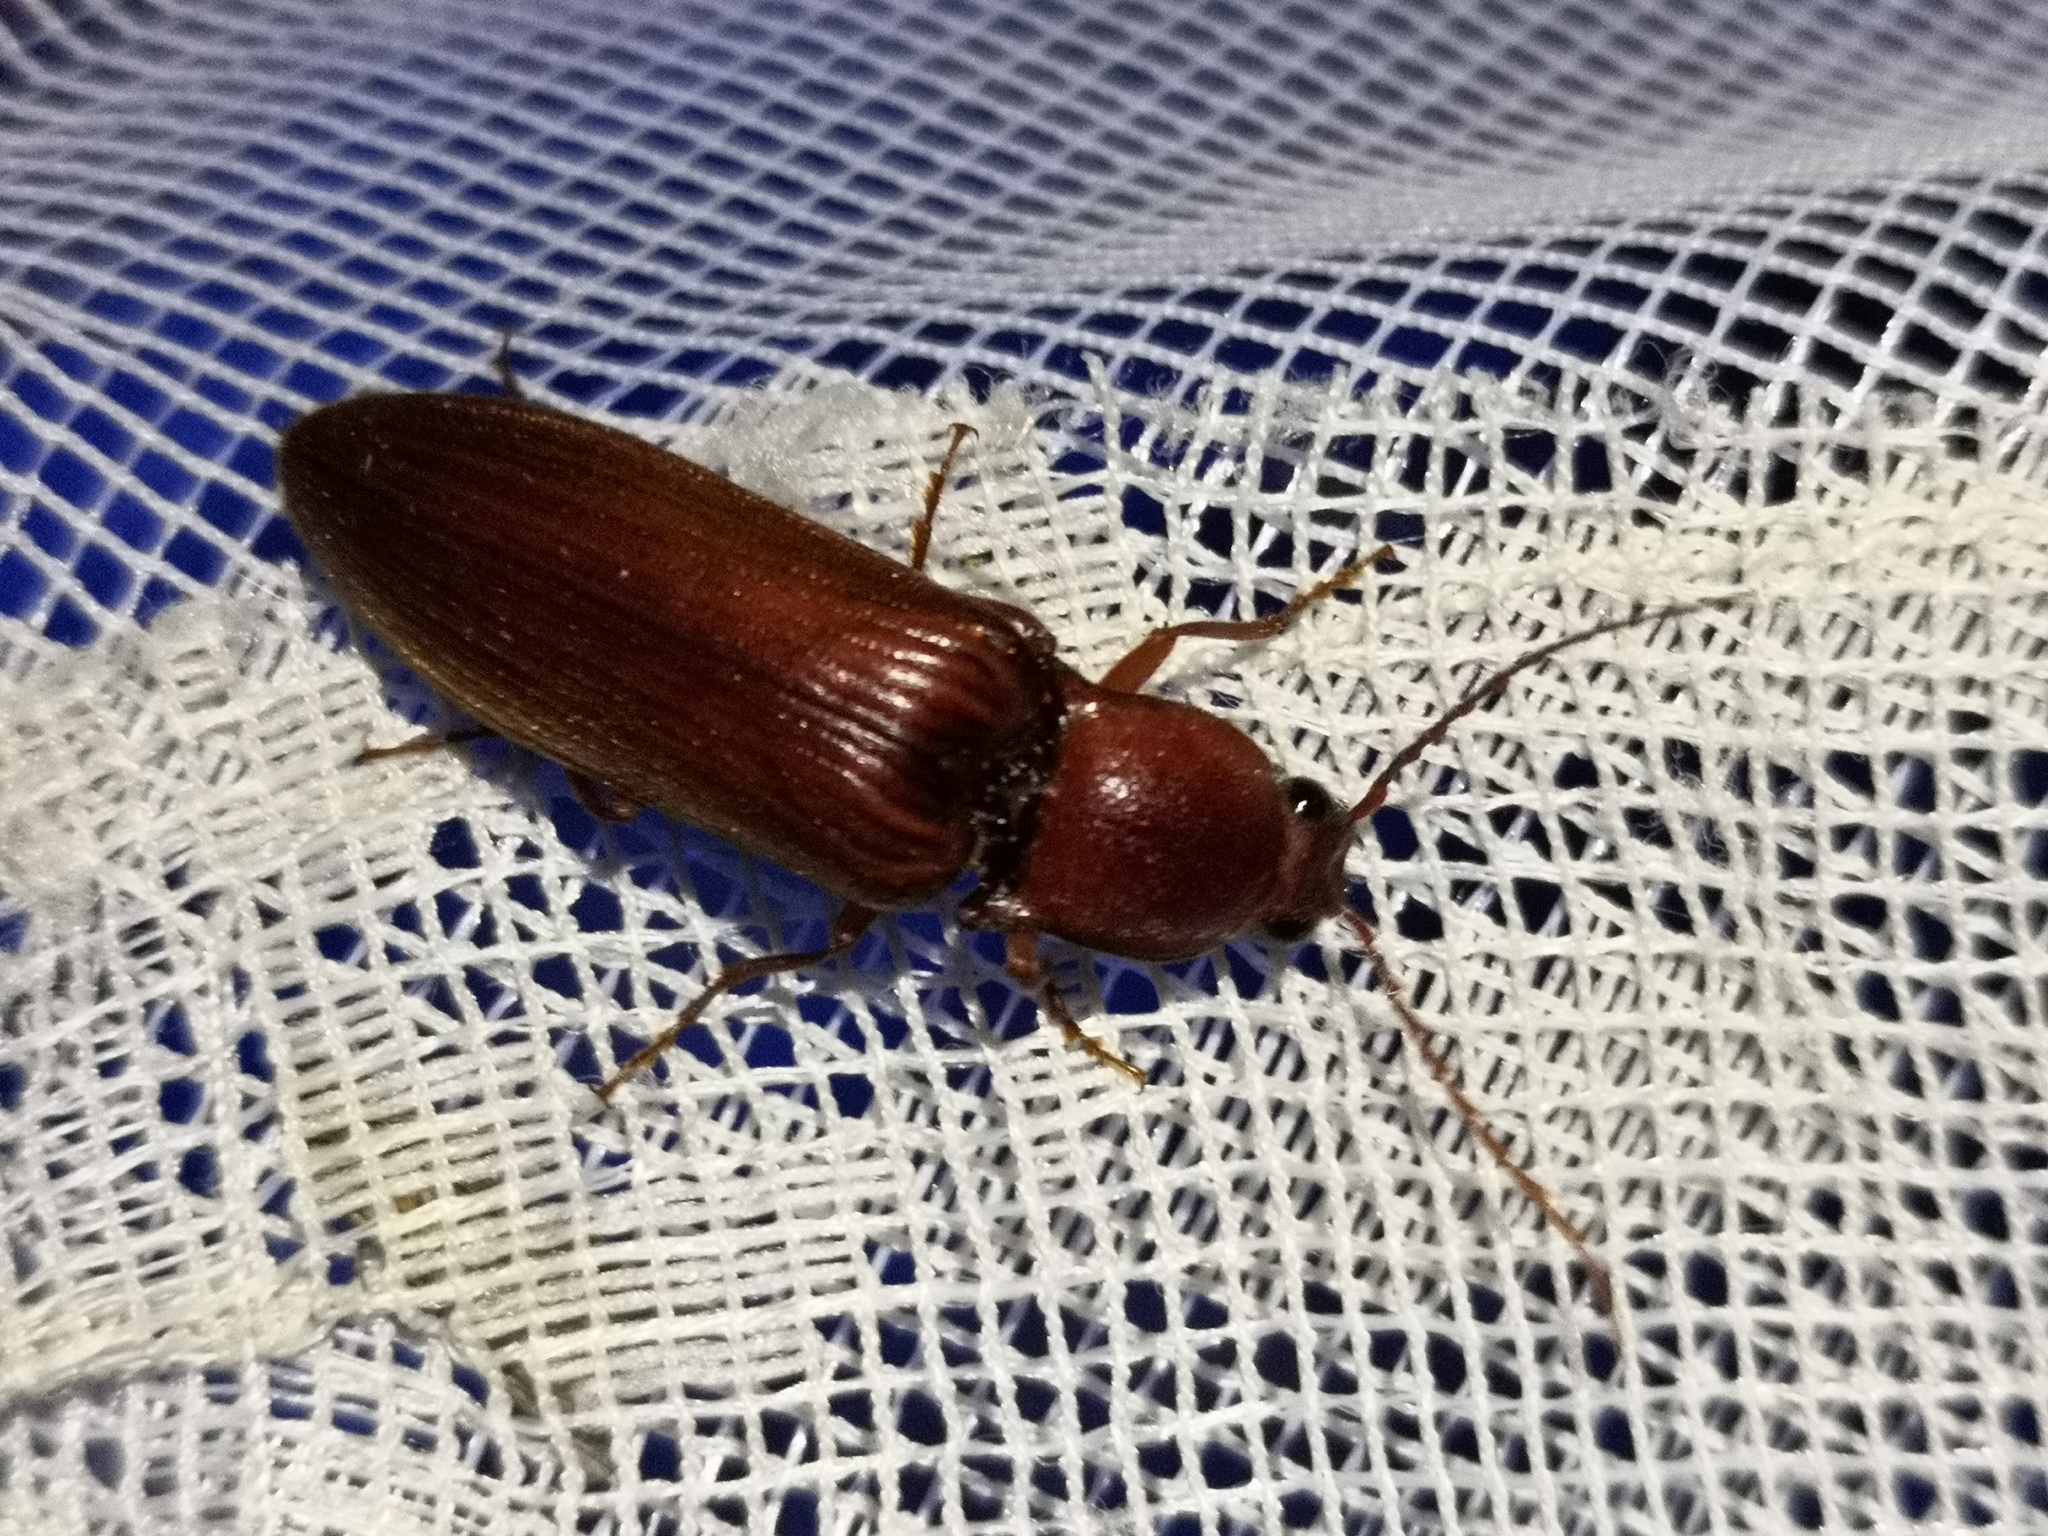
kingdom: Animalia
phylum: Arthropoda
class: Insecta
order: Coleoptera
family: Elateridae
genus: Stenagostus
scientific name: Stenagostus rufus
